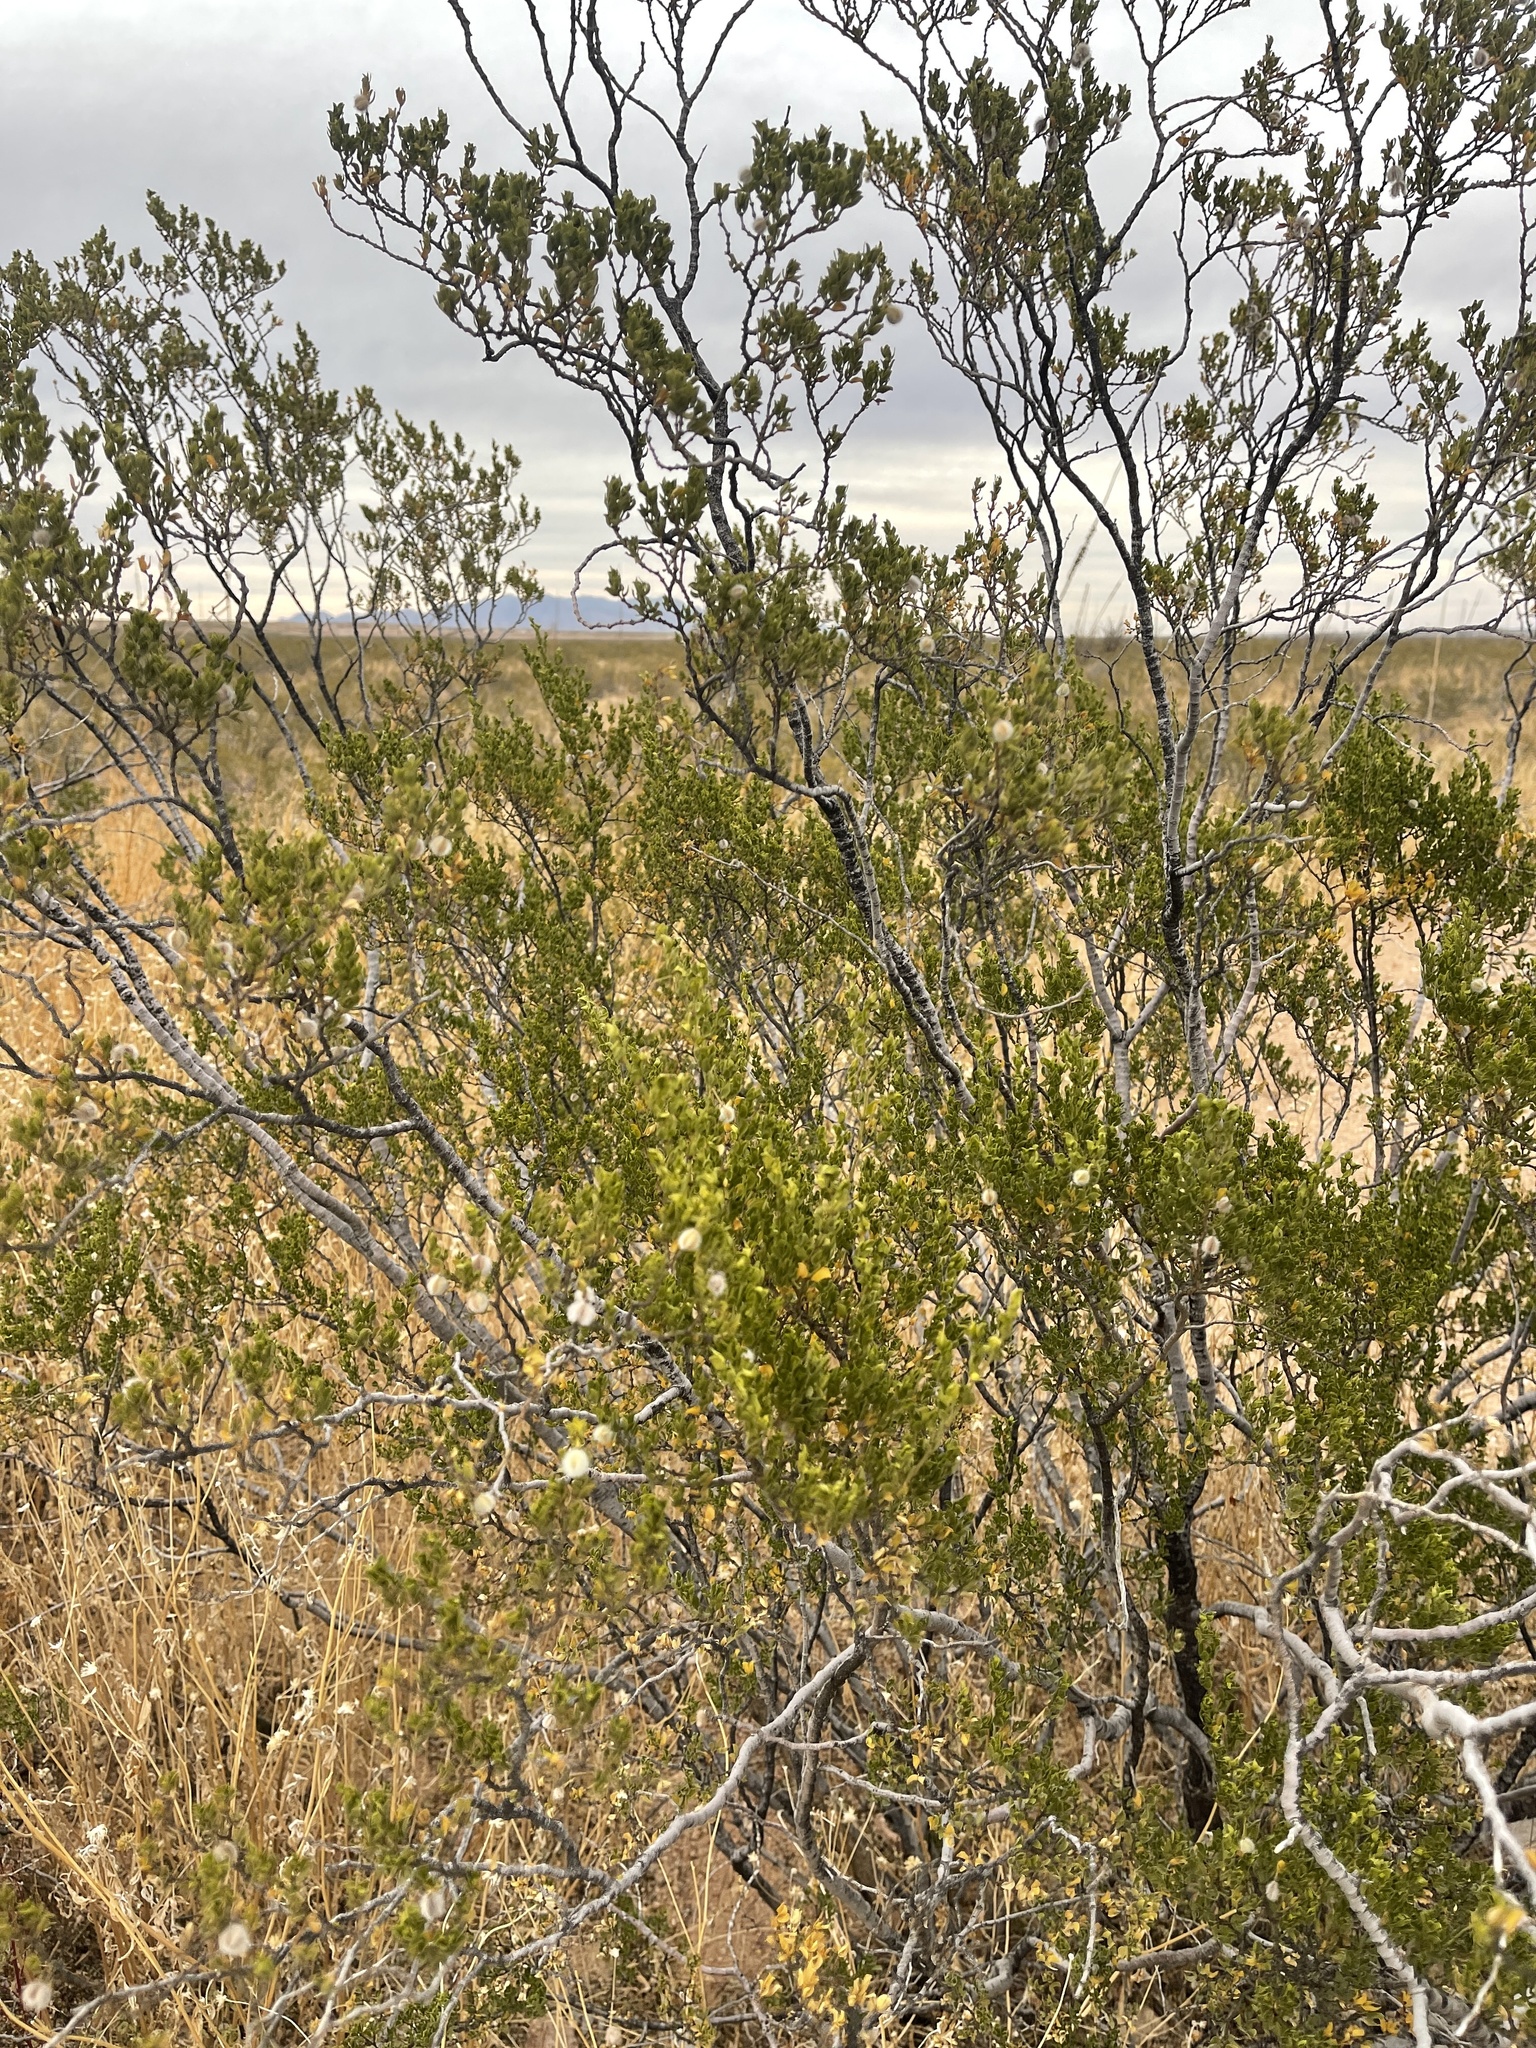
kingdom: Plantae
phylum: Tracheophyta
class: Magnoliopsida
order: Zygophyllales
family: Zygophyllaceae
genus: Larrea
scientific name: Larrea tridentata
